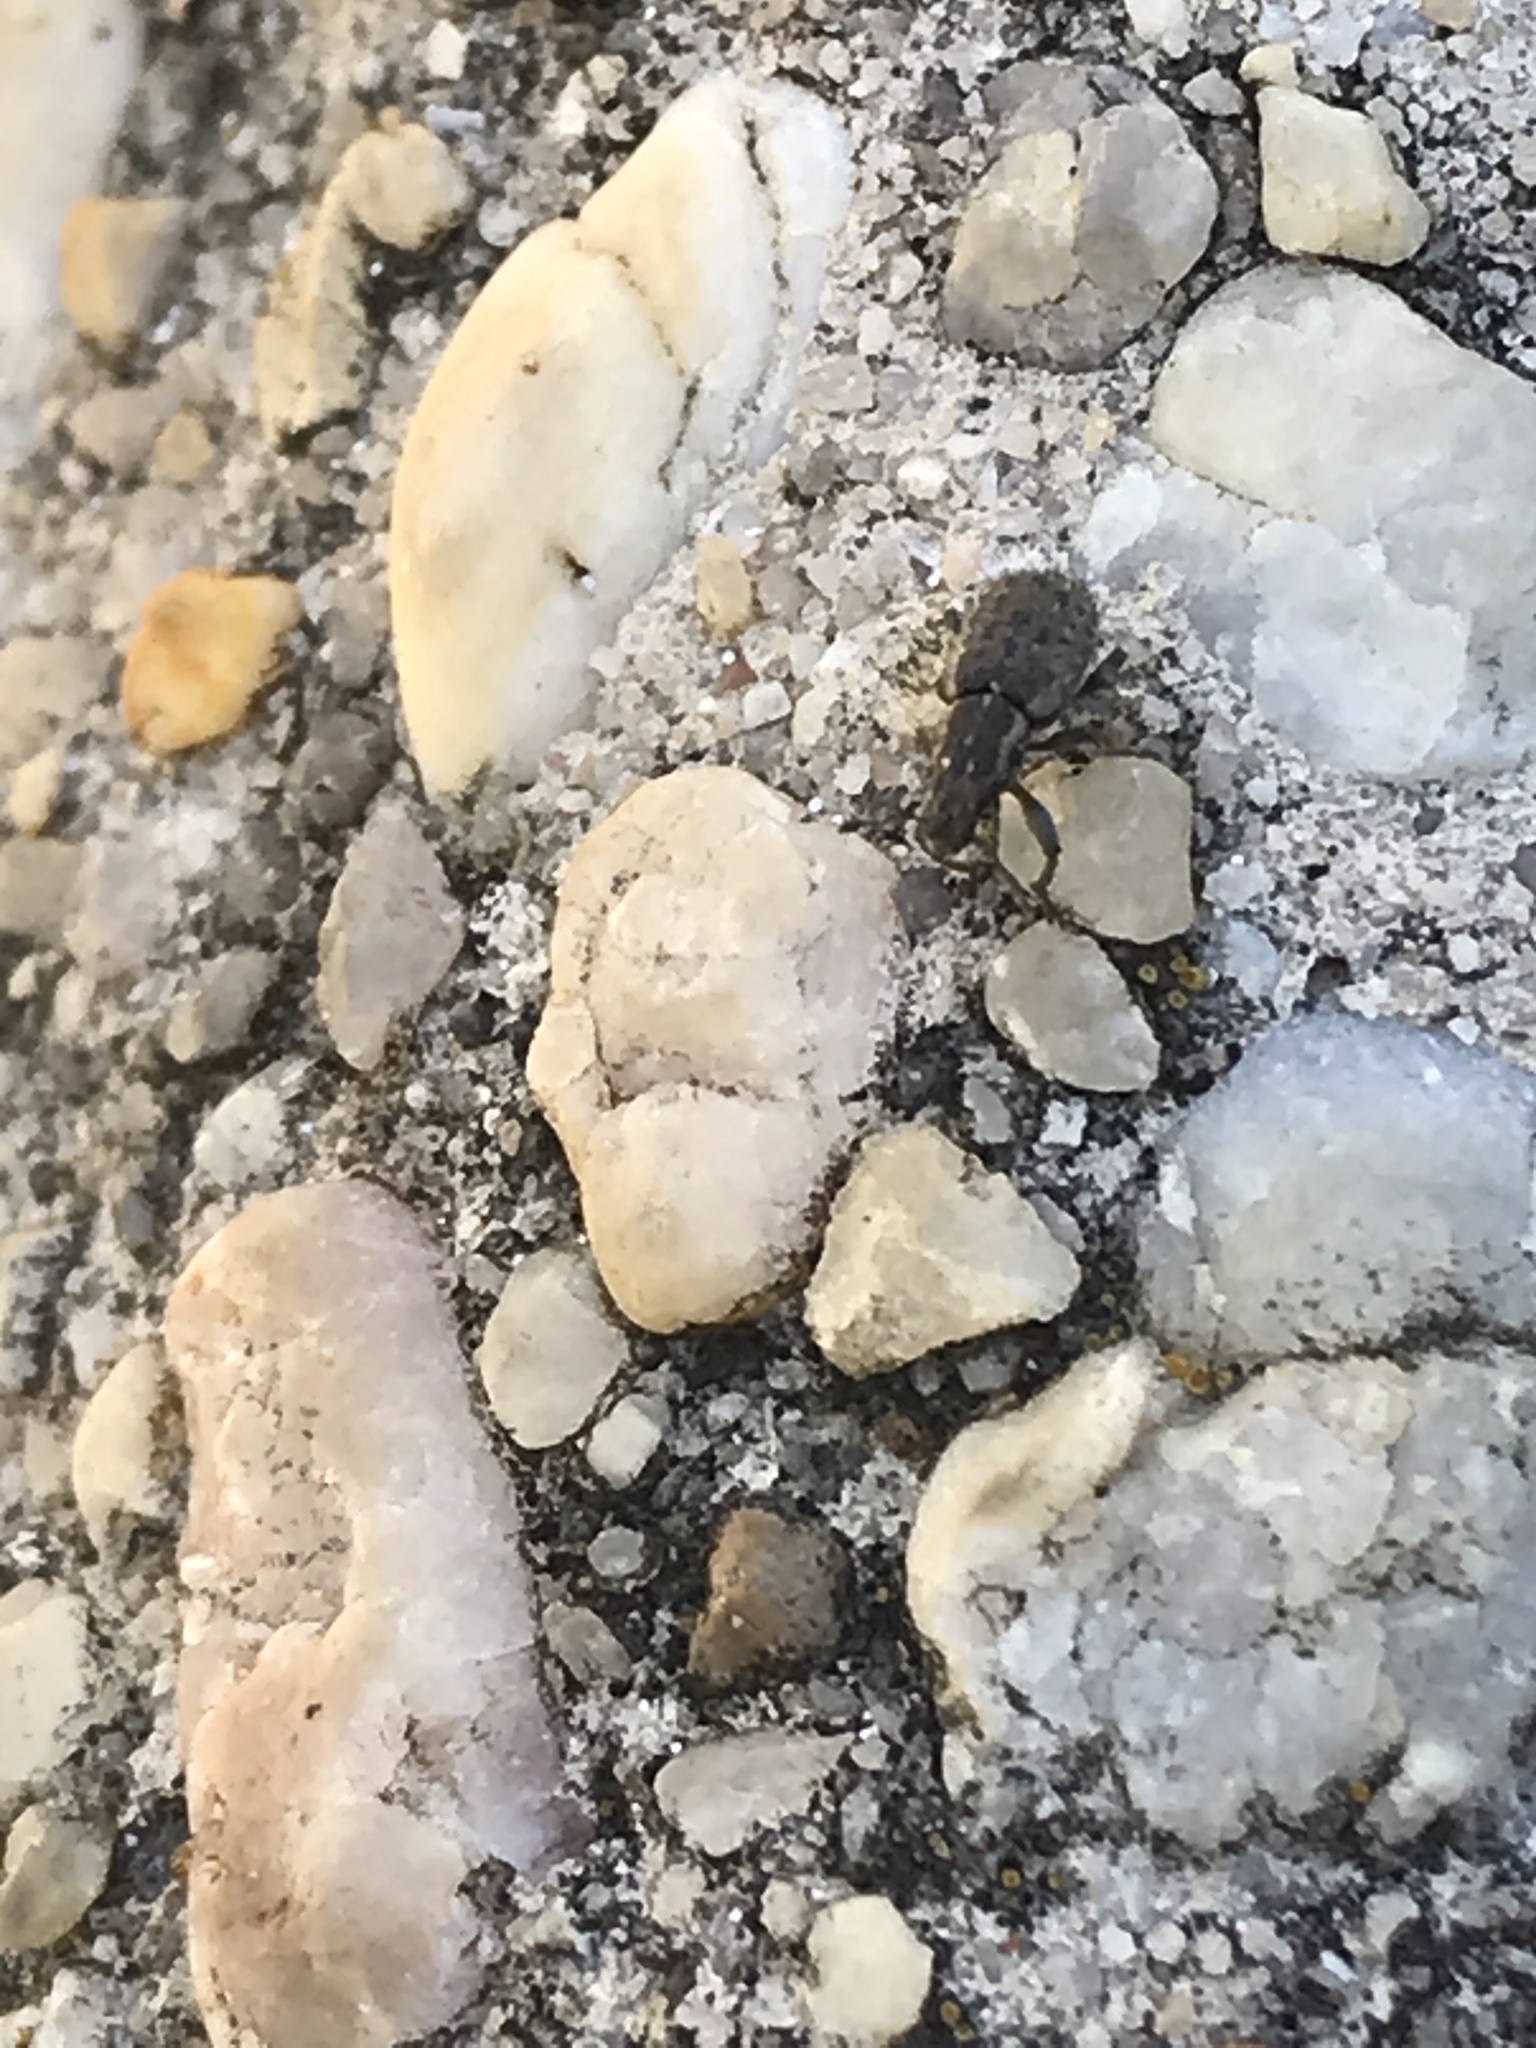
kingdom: Animalia
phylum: Arthropoda
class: Insecta
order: Coleoptera
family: Curculionidae
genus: Sitona
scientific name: Sitona hispidulus
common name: Clover weevil
